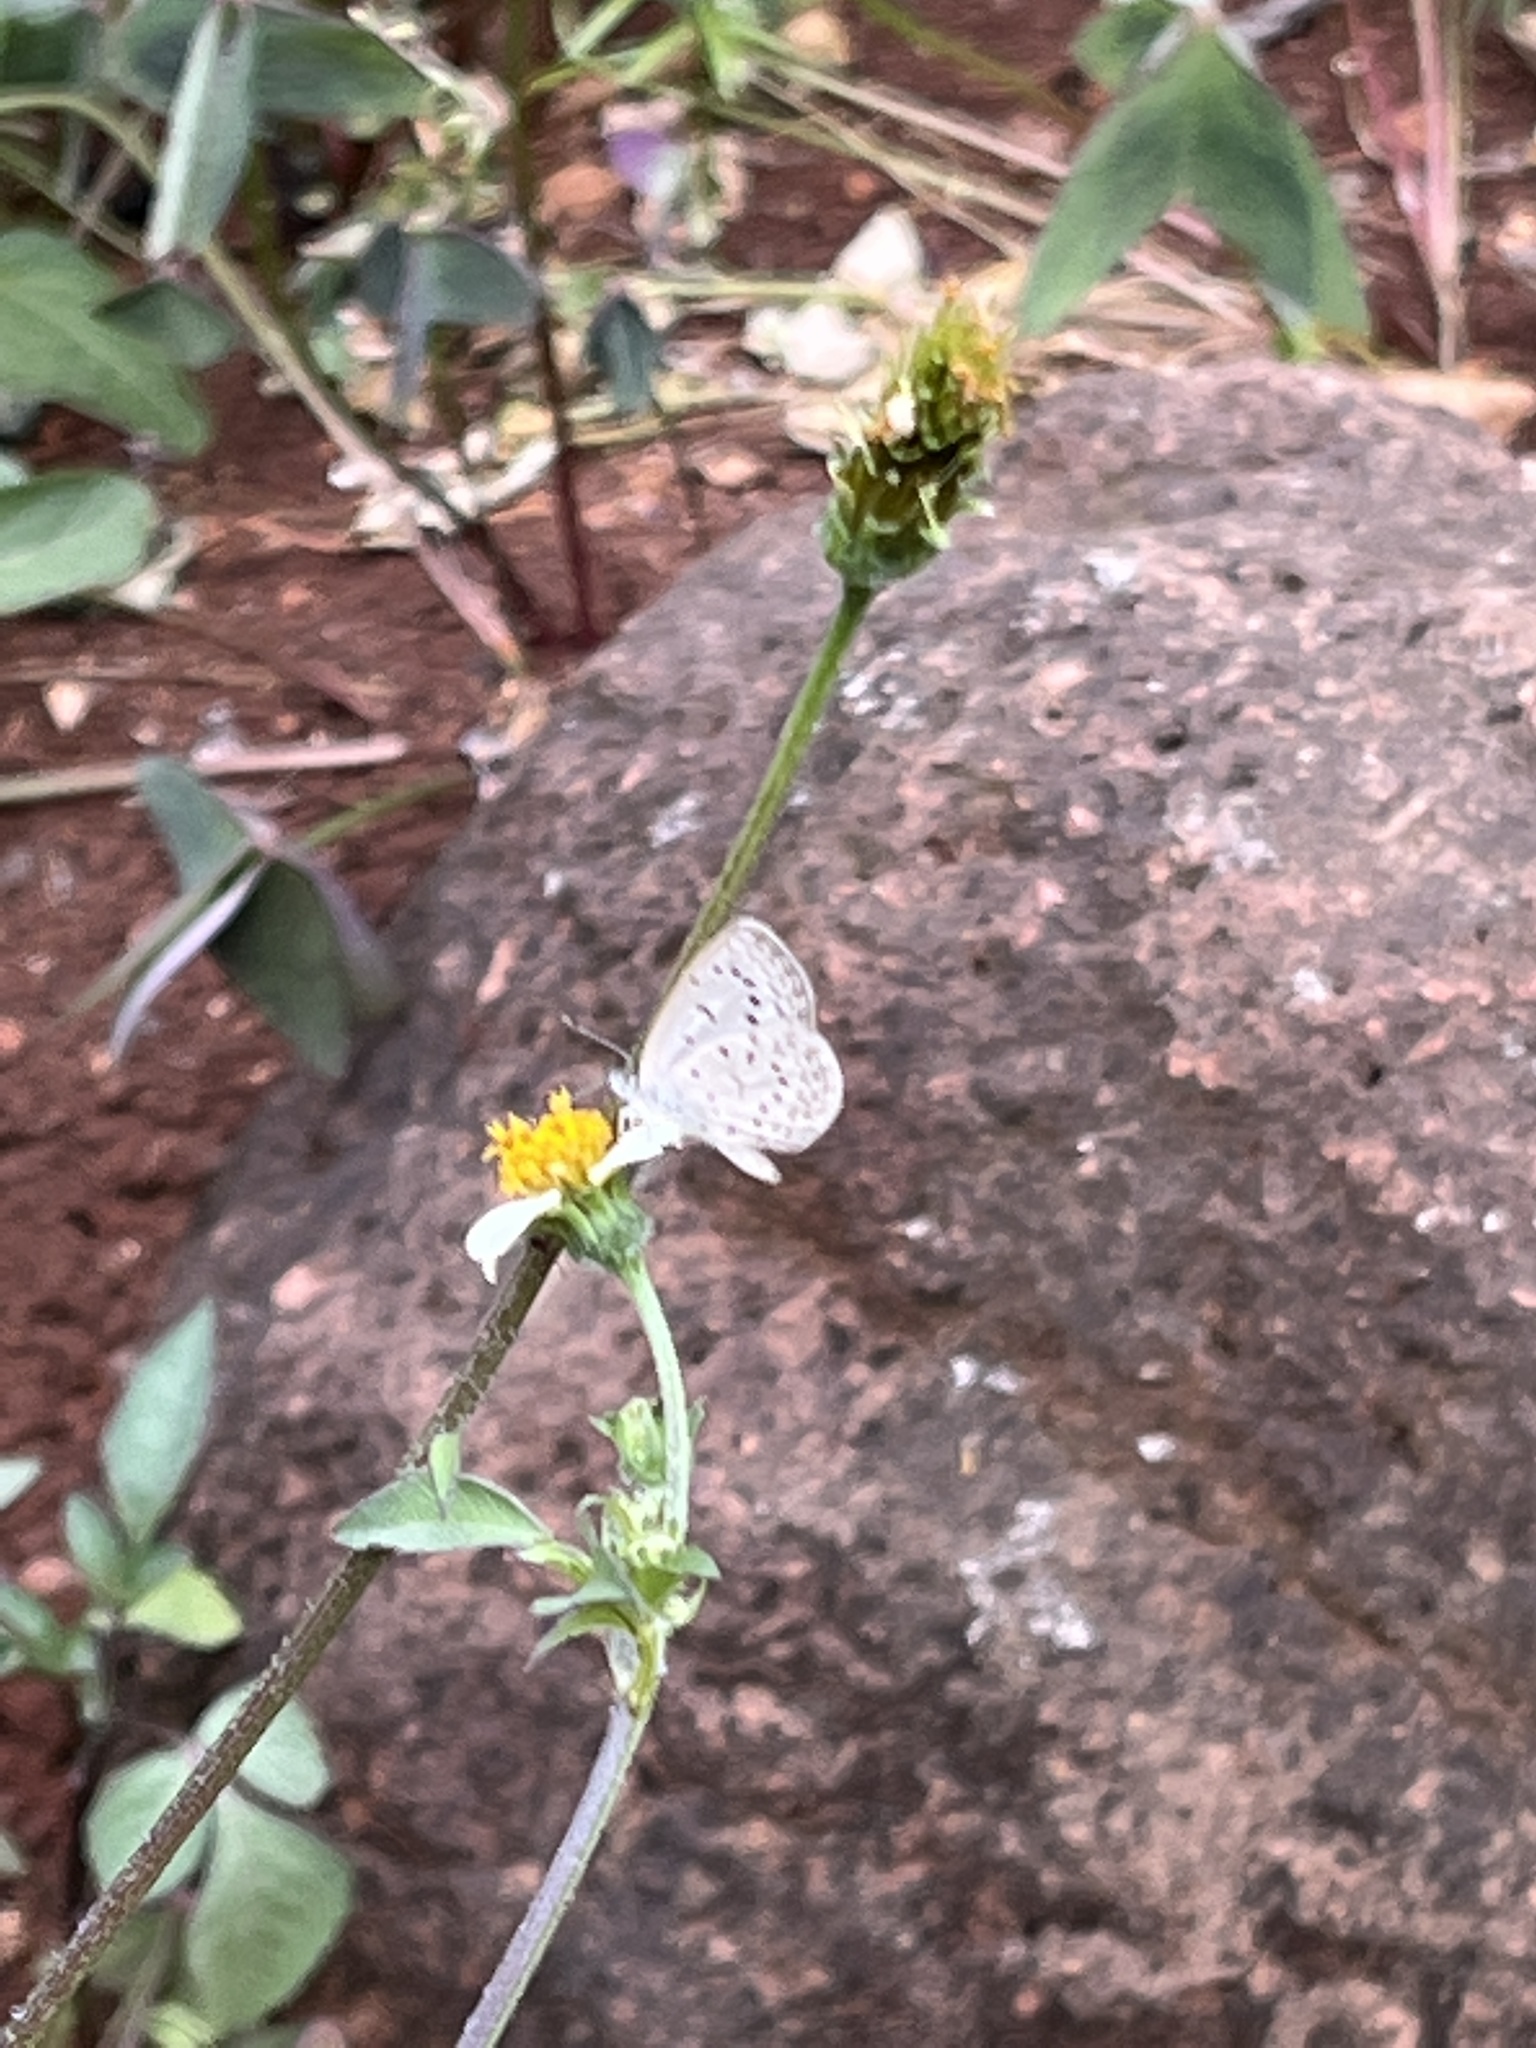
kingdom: Animalia
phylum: Arthropoda
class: Insecta
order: Lepidoptera
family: Lycaenidae
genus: Zizeeria
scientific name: Zizeeria knysna
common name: African grass blue
